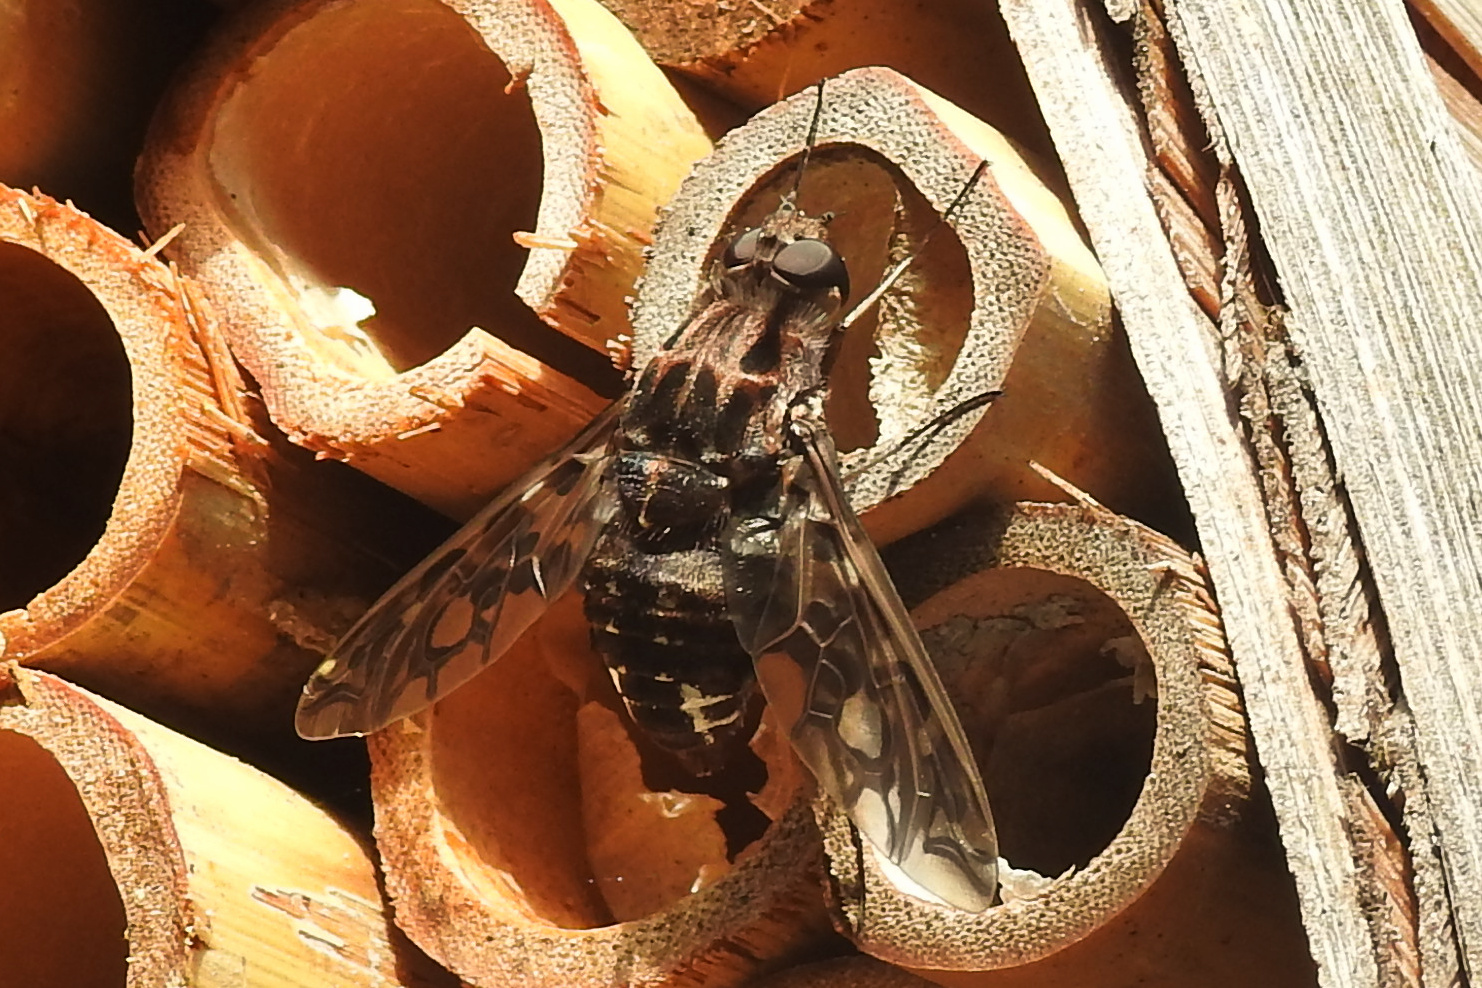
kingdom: Animalia
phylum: Arthropoda
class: Insecta
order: Diptera
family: Bombyliidae
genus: Xenox
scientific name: Xenox tigrinus
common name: Tiger bee fly
